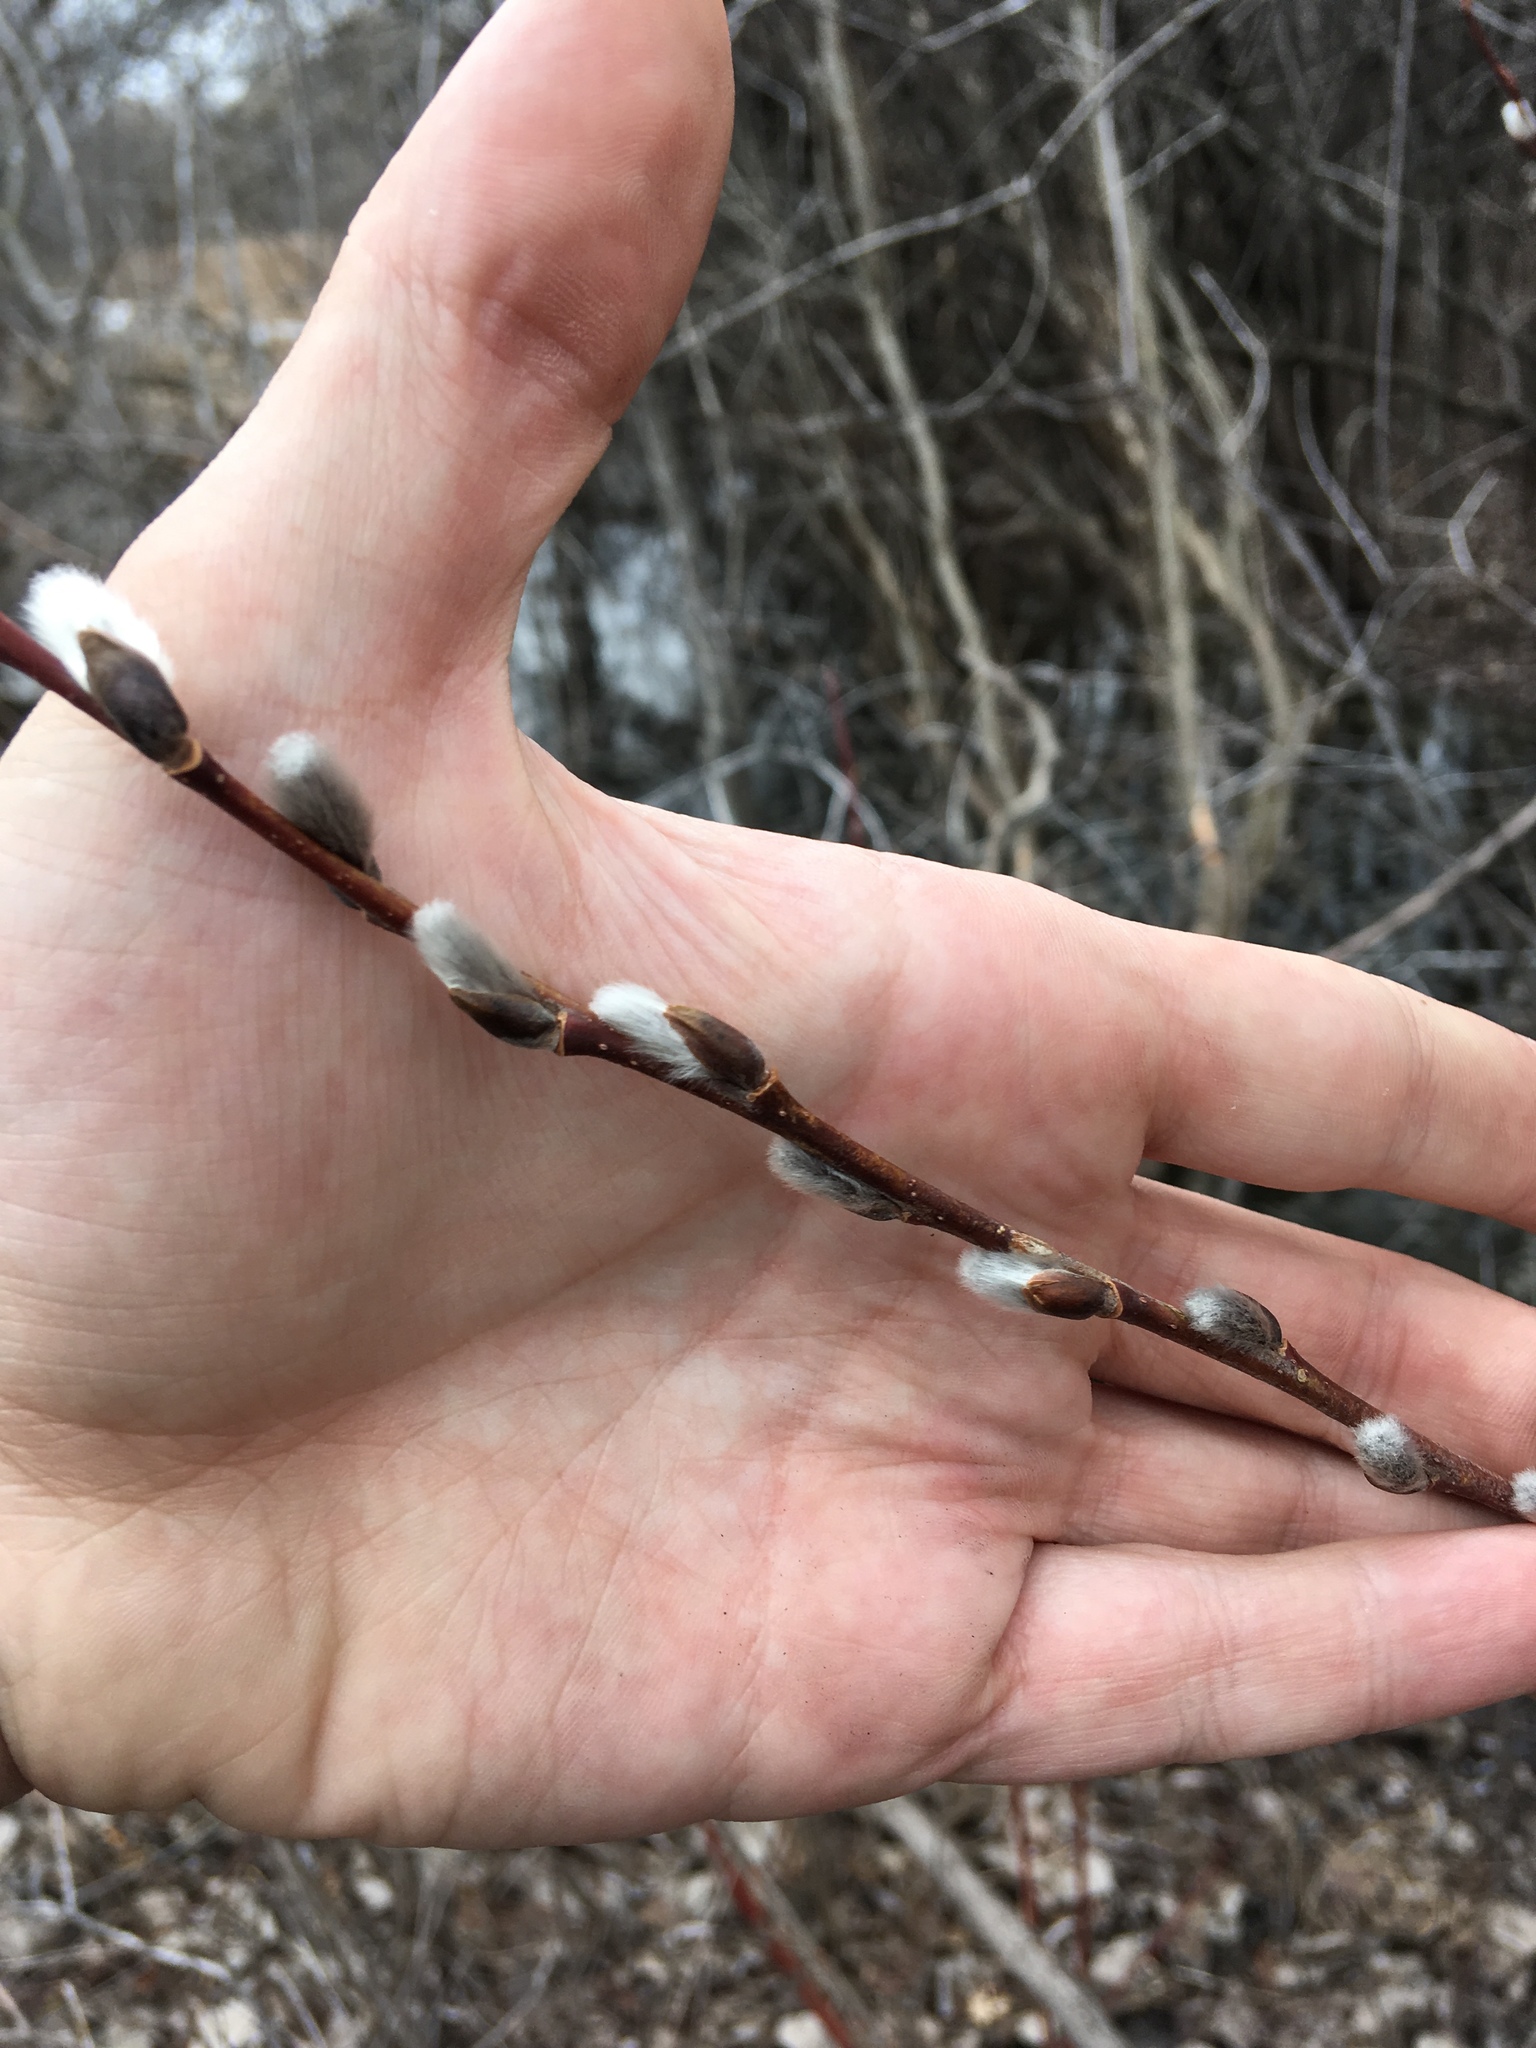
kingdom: Plantae
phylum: Tracheophyta
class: Magnoliopsida
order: Malpighiales
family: Salicaceae
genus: Salix
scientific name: Salix discolor
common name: Glaucous willow
